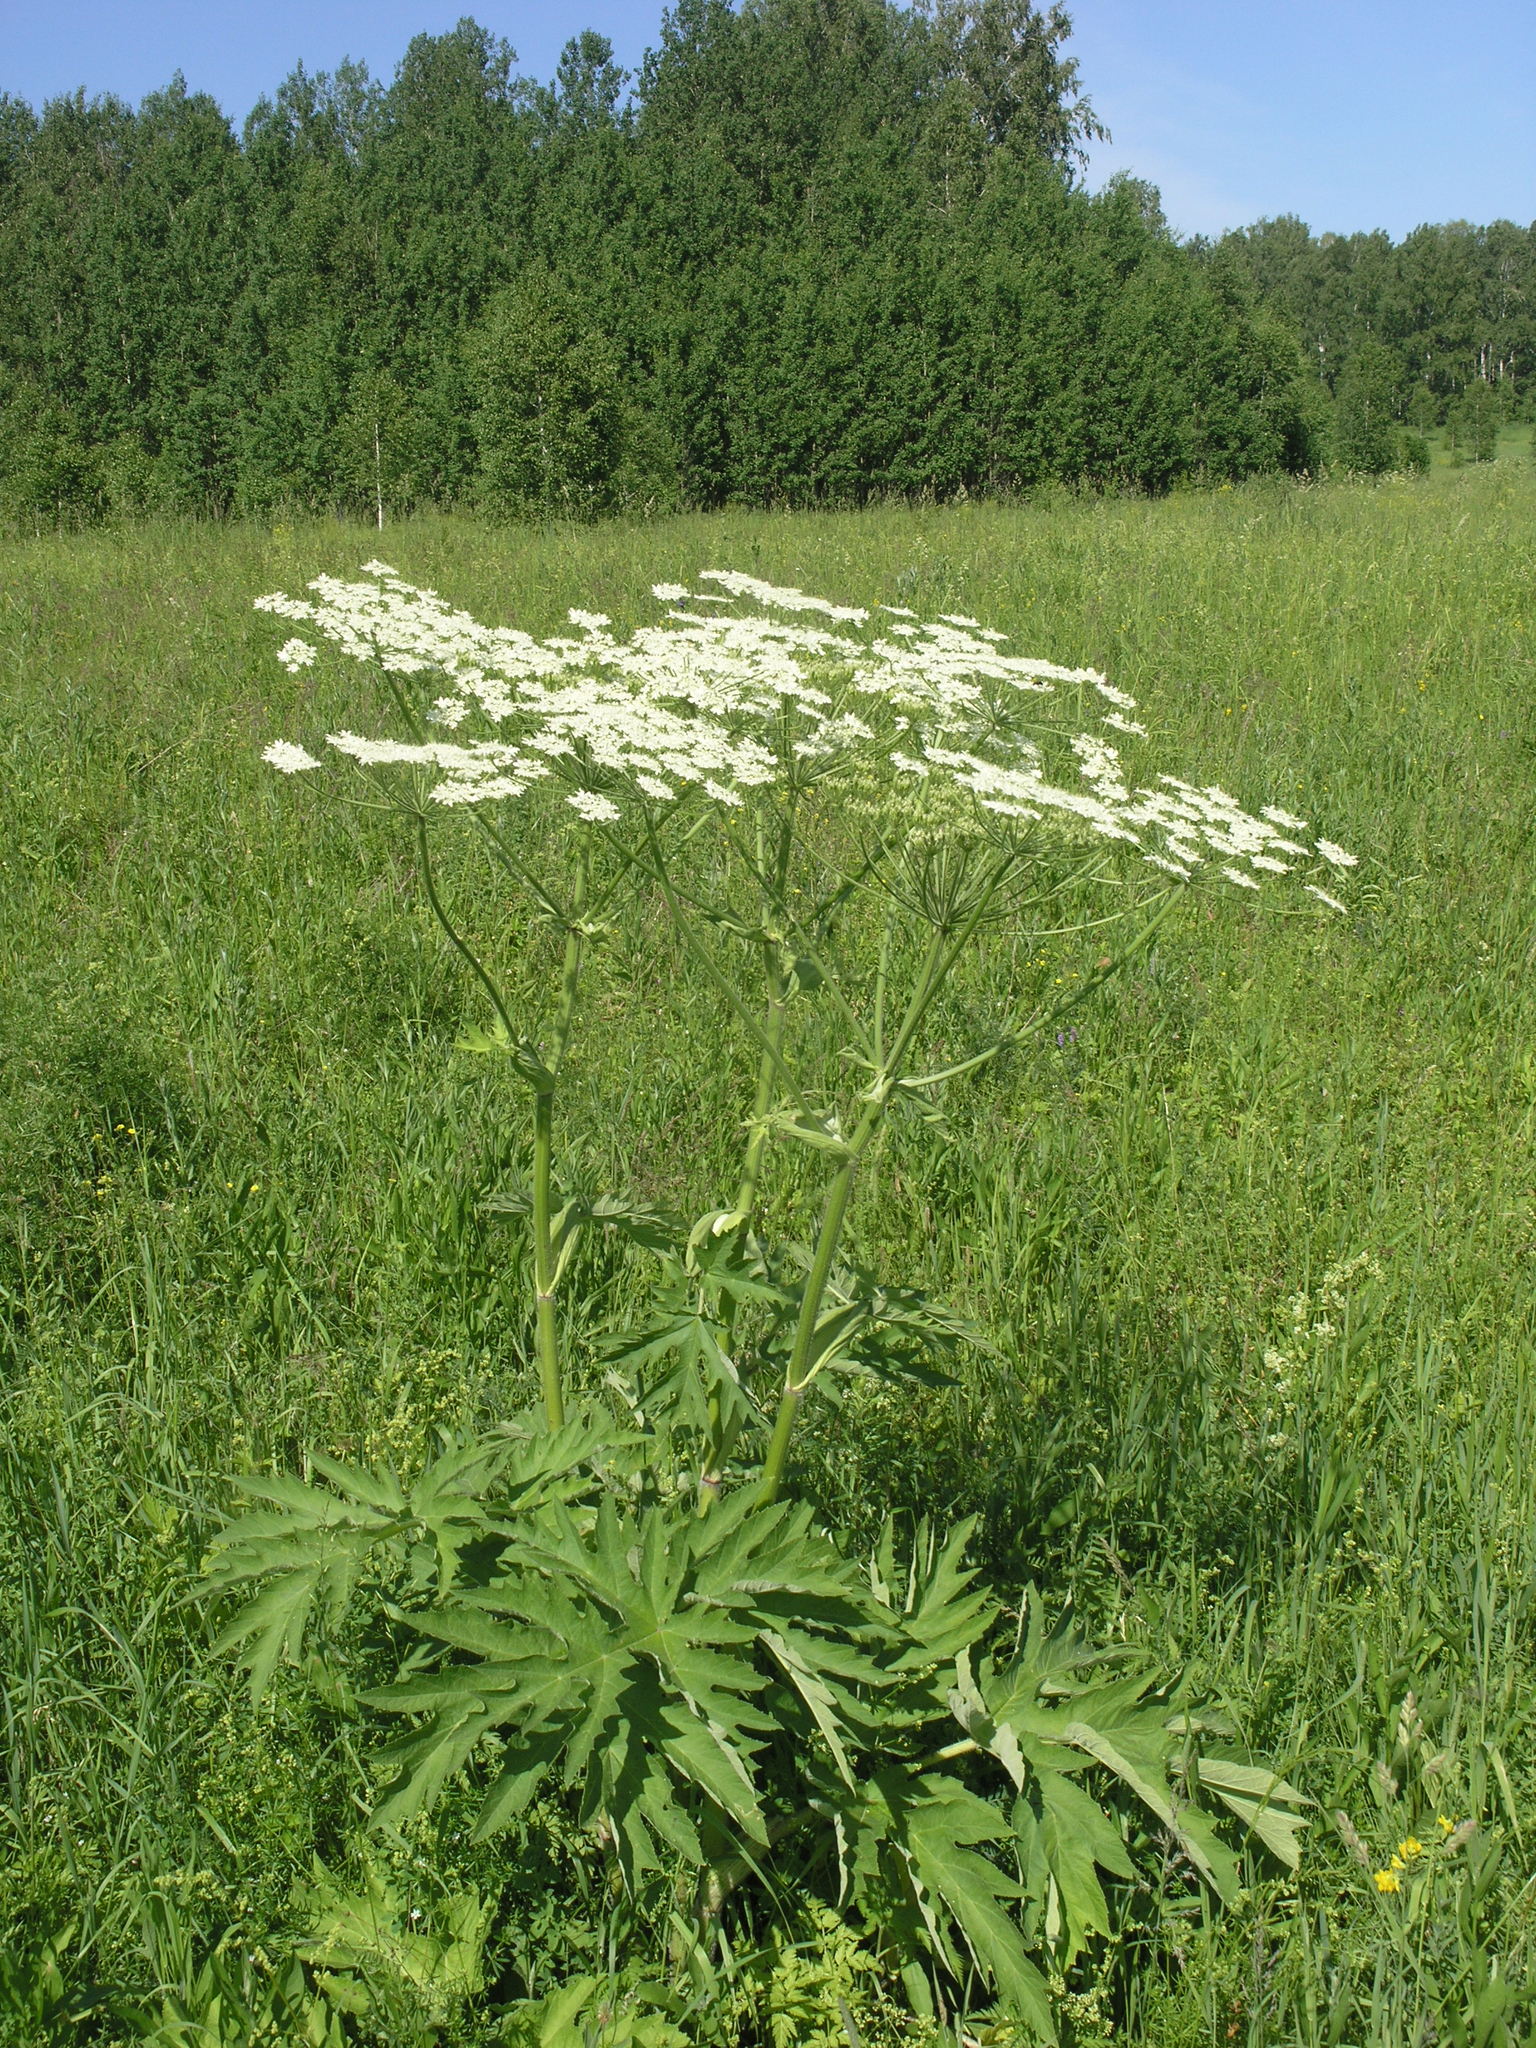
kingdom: Plantae
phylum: Tracheophyta
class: Magnoliopsida
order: Apiales
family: Apiaceae
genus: Heracleum
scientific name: Heracleum dissectum
